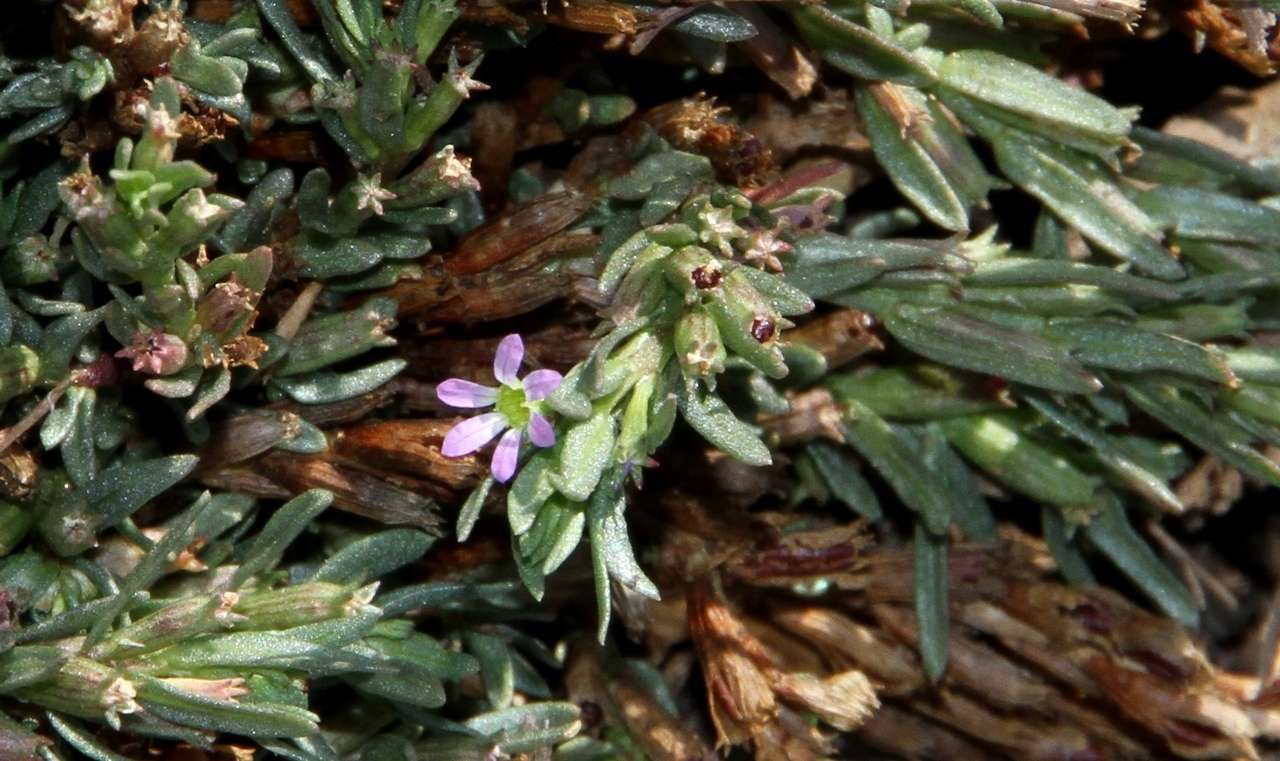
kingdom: Plantae
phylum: Tracheophyta
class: Magnoliopsida
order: Myrtales
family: Lythraceae
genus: Lythrum
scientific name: Lythrum hyssopifolia
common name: Grass-poly
